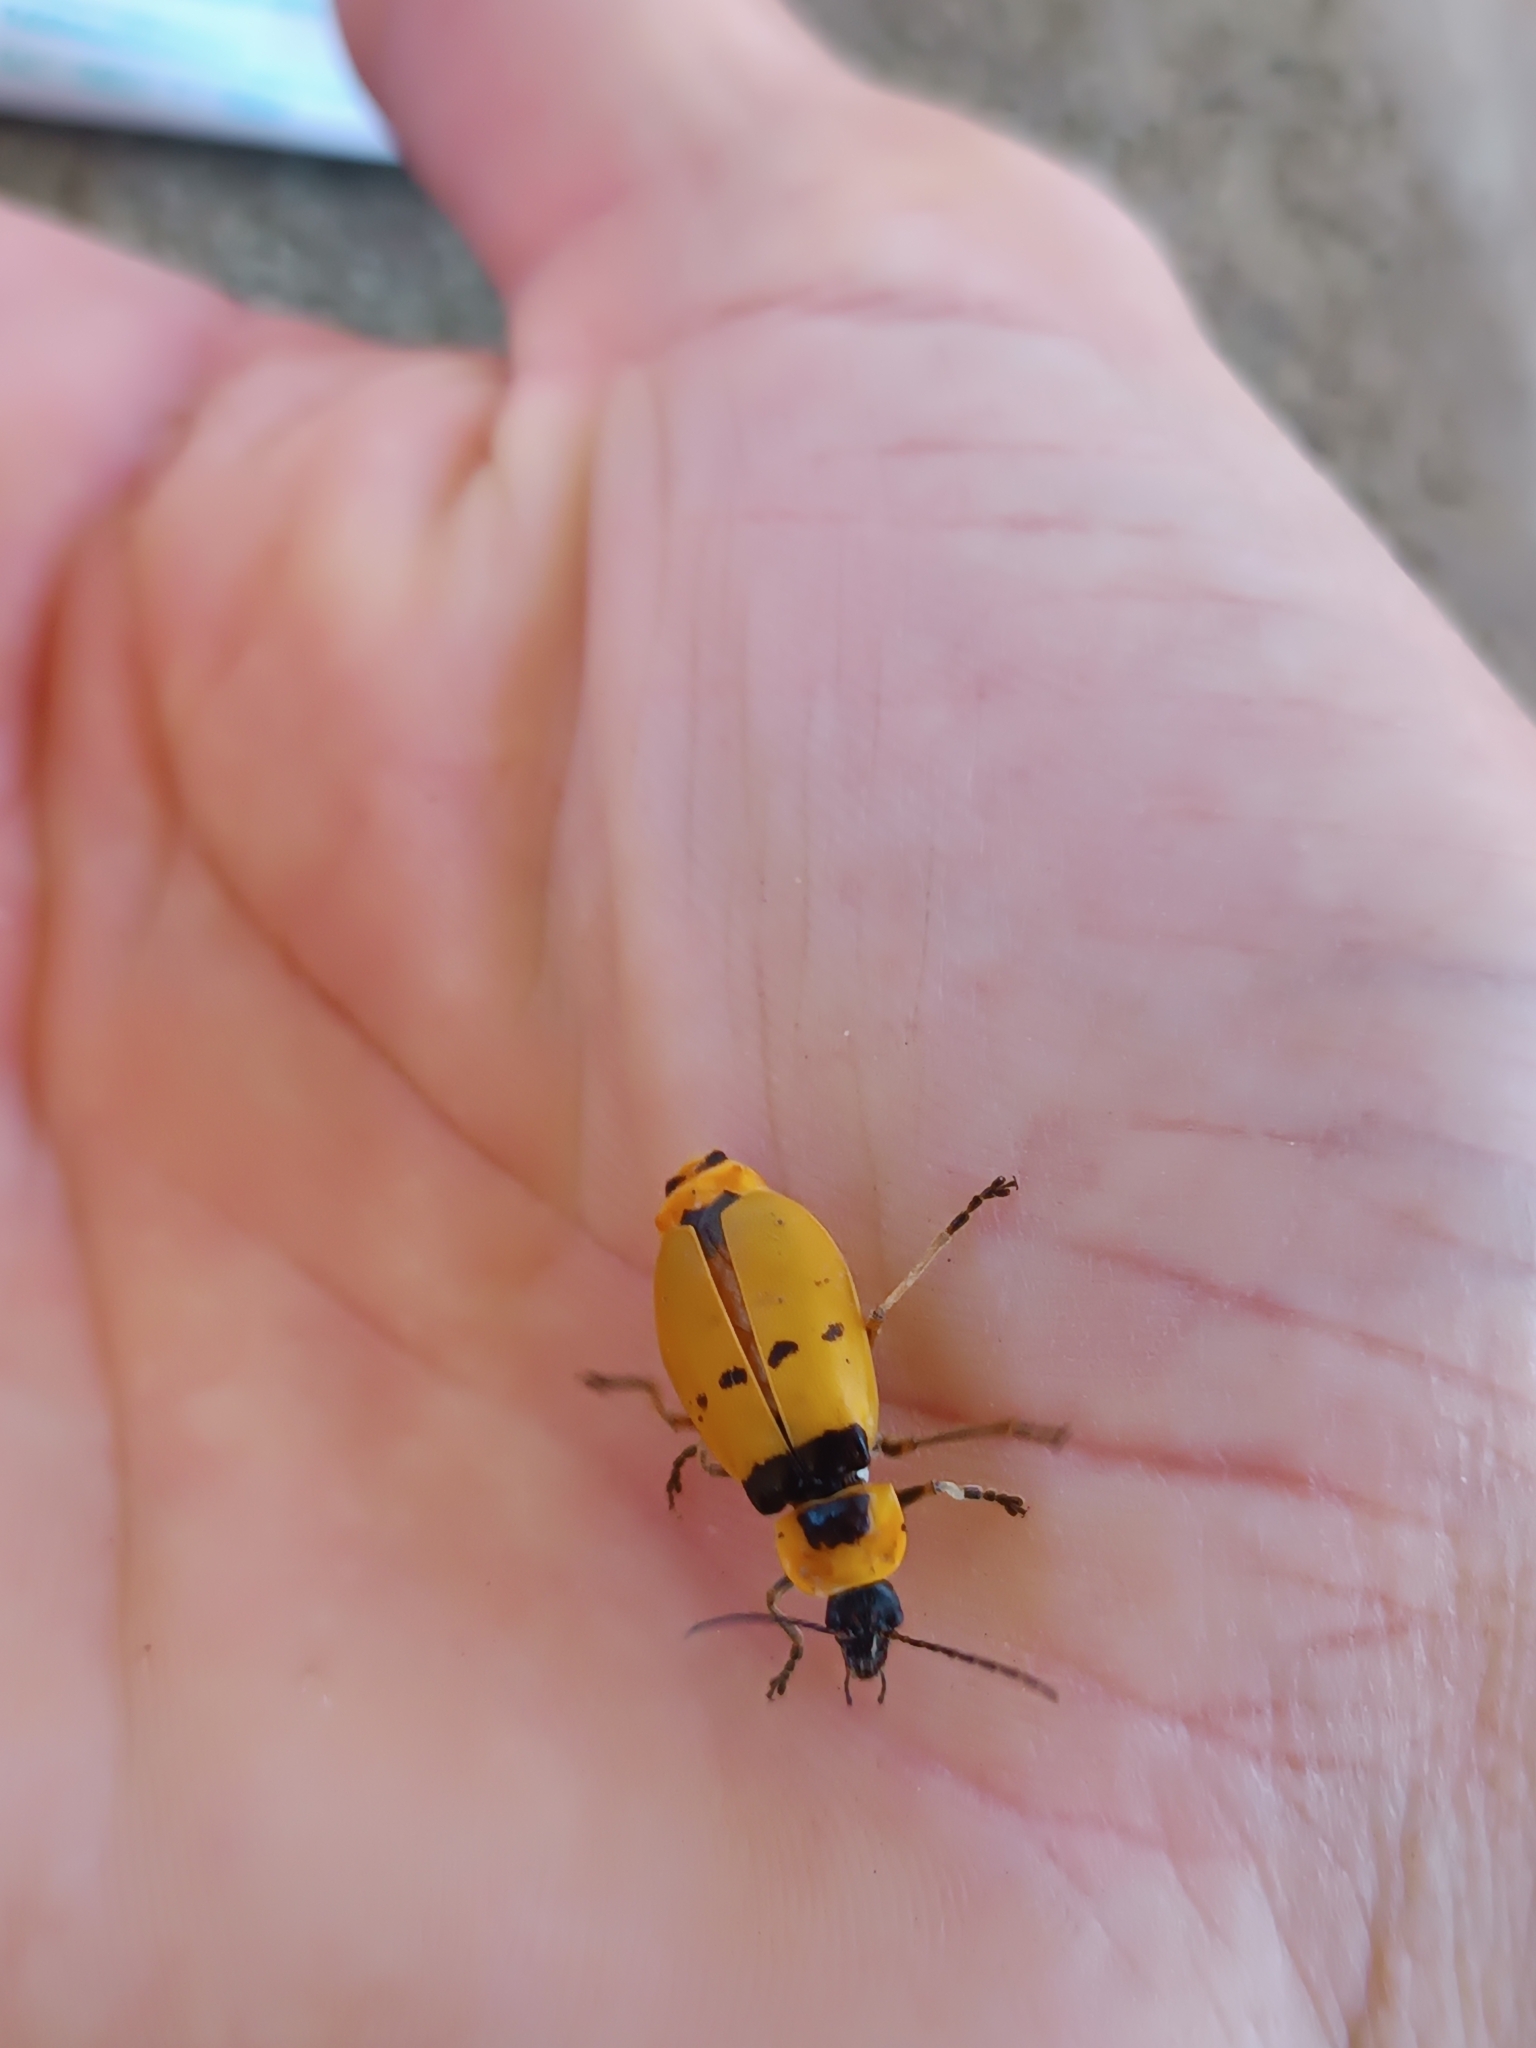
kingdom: Animalia
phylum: Arthropoda
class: Insecta
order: Coleoptera
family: Cantharidae
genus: Chauliognathus
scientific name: Chauliognathus
